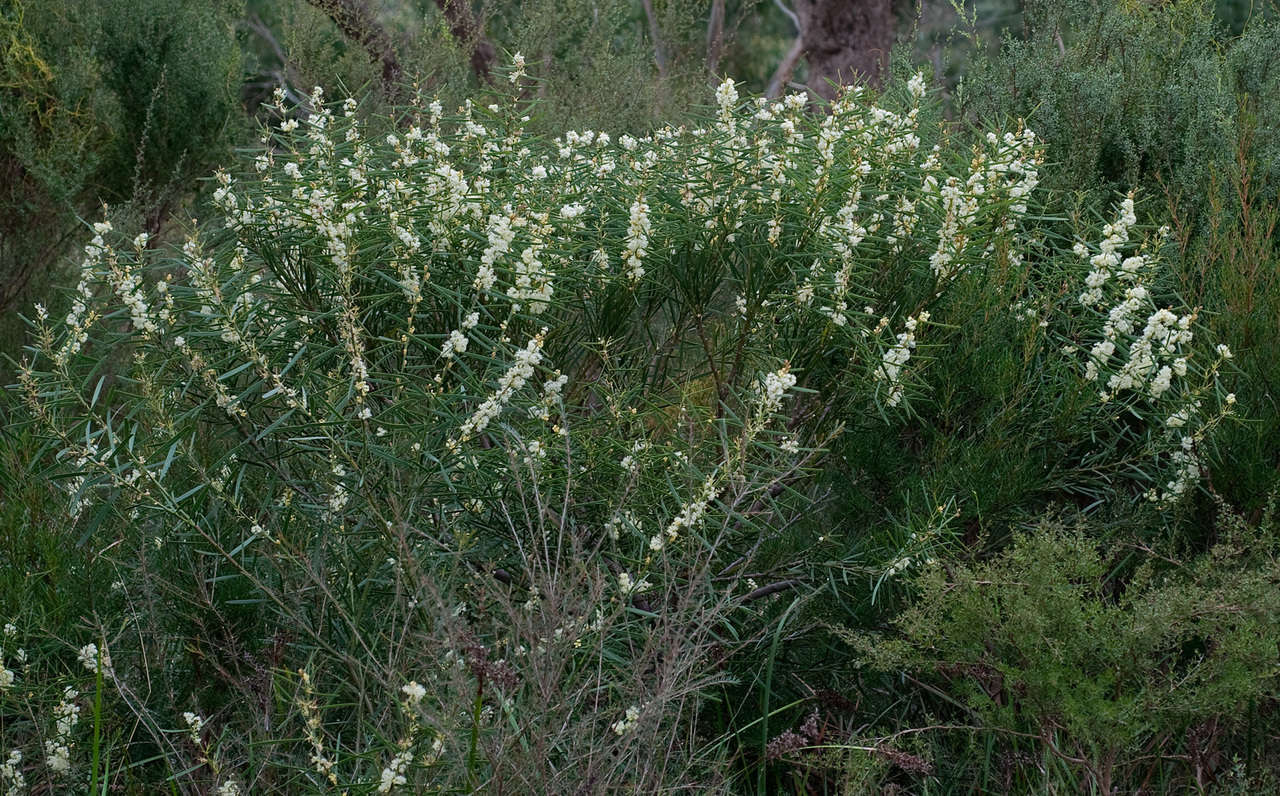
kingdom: Plantae
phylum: Tracheophyta
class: Magnoliopsida
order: Fabales
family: Fabaceae
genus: Acacia
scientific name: Acacia suaveolens
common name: Sweet acacia
